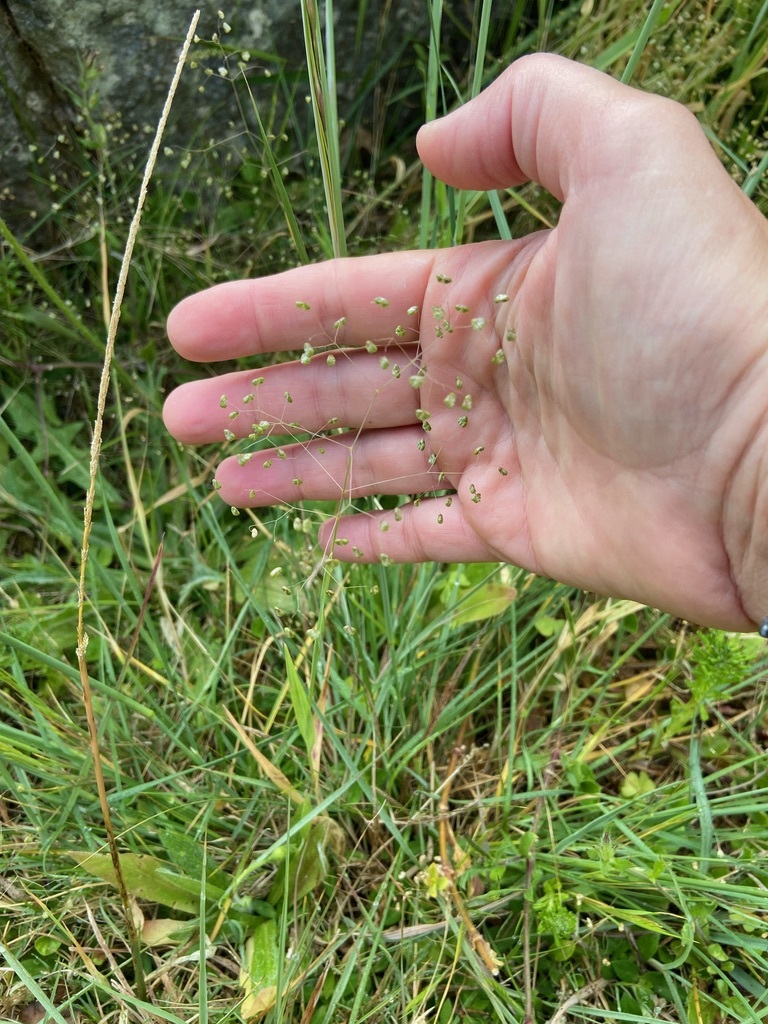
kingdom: Plantae
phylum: Tracheophyta
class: Liliopsida
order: Poales
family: Poaceae
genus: Briza
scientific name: Briza minor
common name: Lesser quaking-grass
